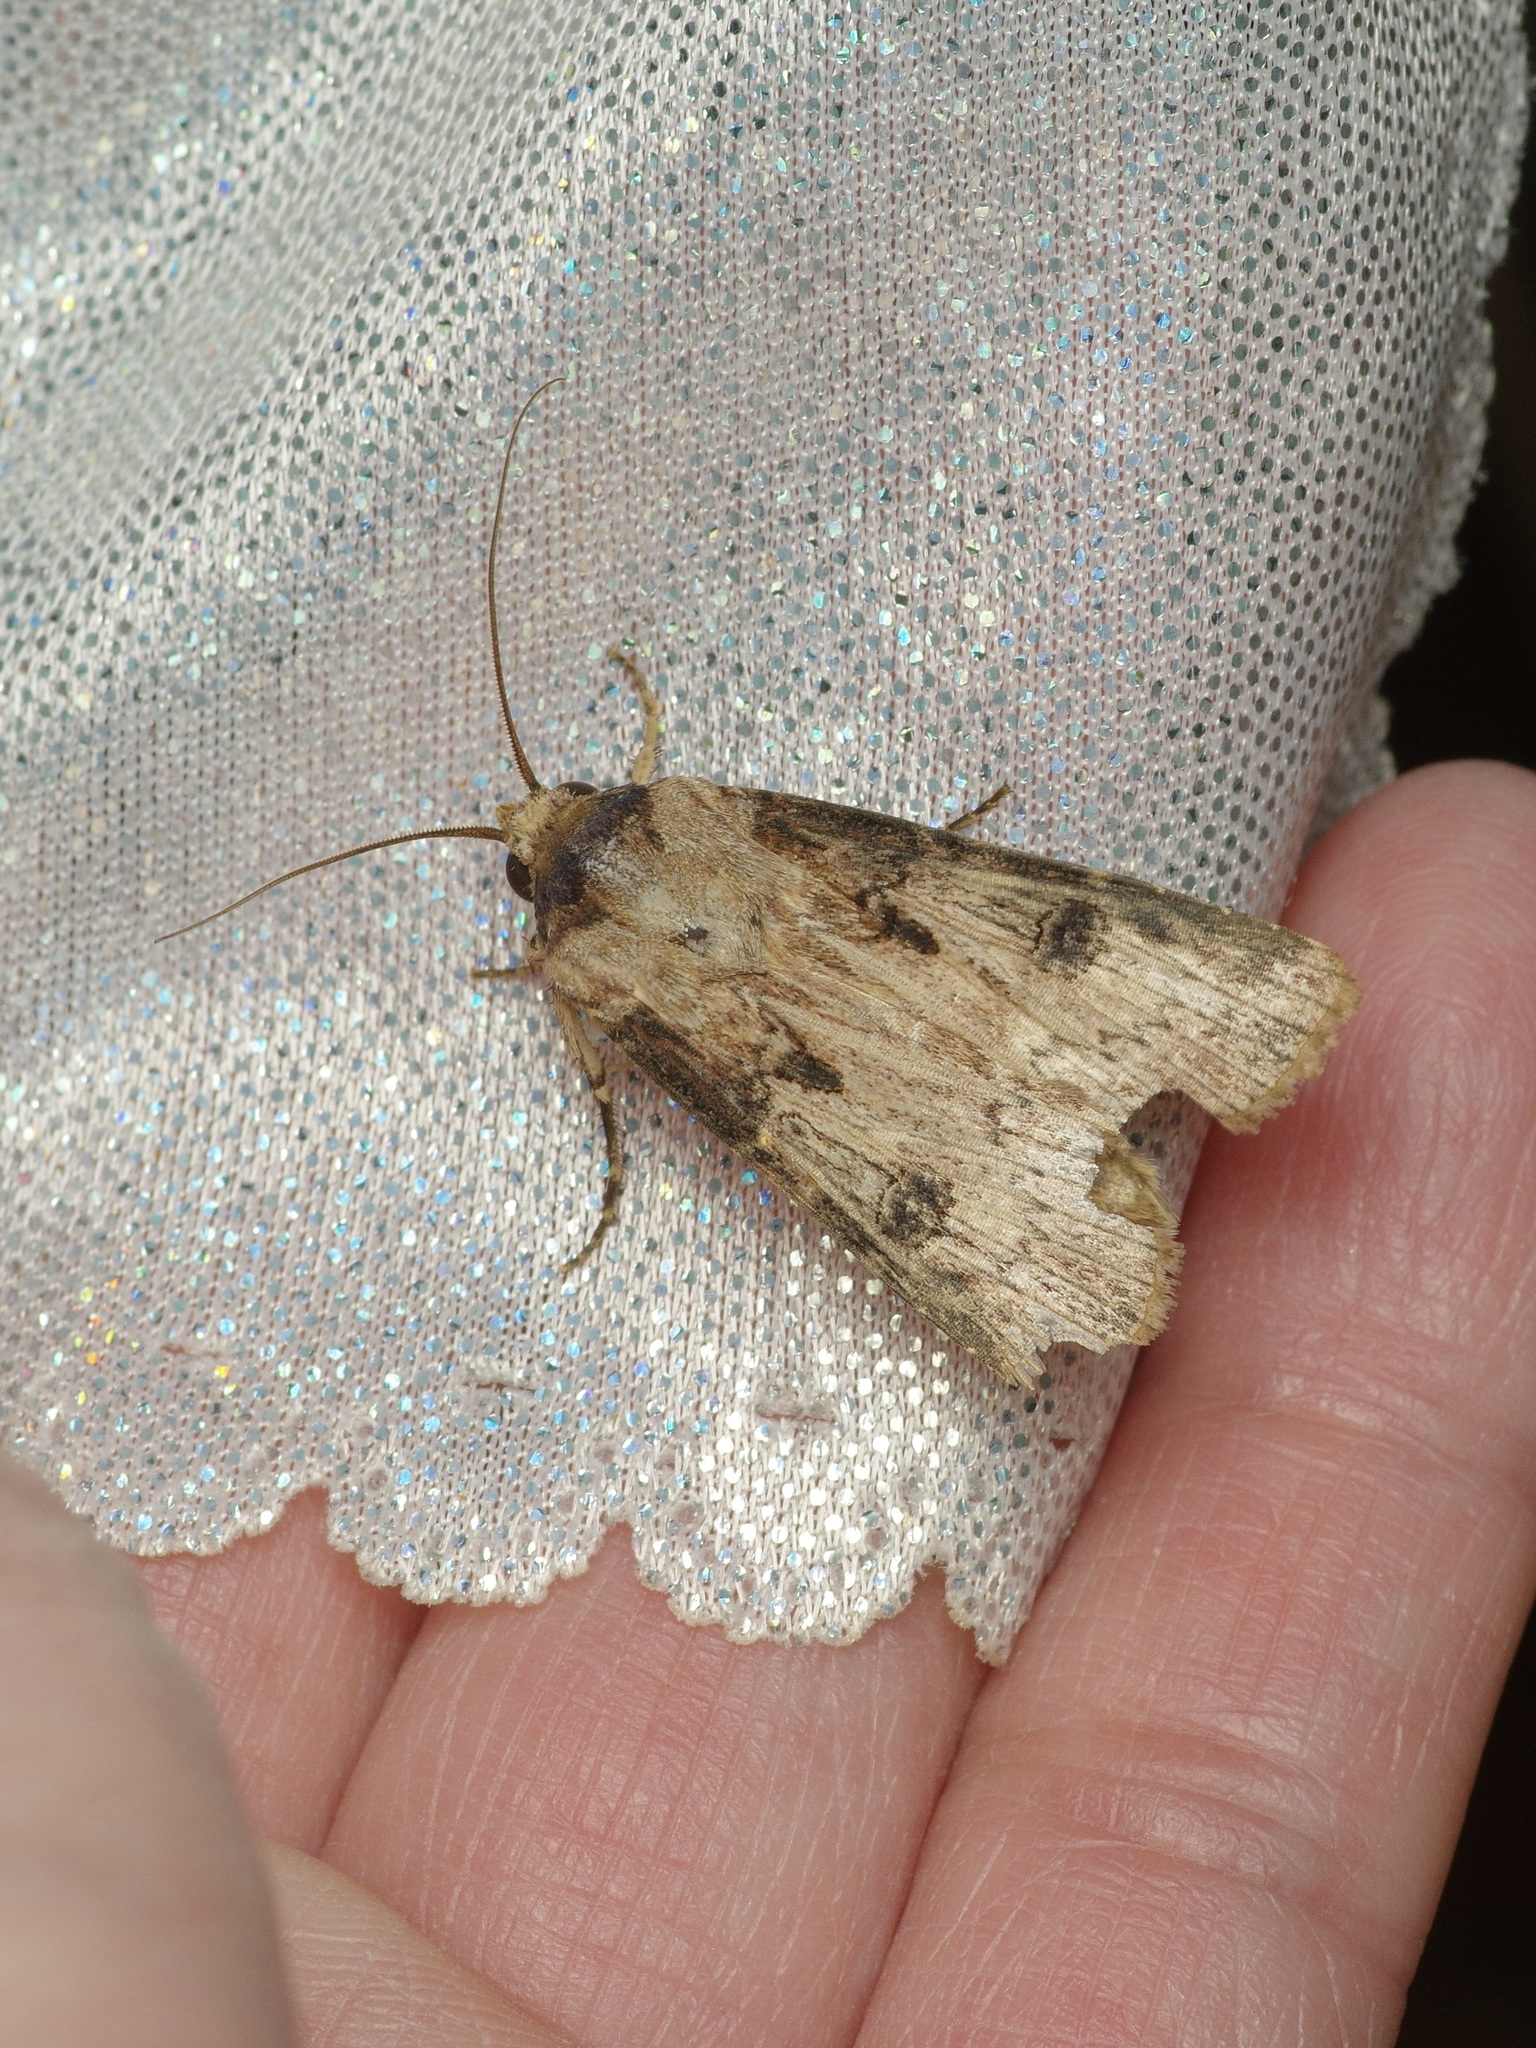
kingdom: Animalia
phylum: Arthropoda
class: Insecta
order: Lepidoptera
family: Noctuidae
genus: Agrotis
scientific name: Agrotis malefida
